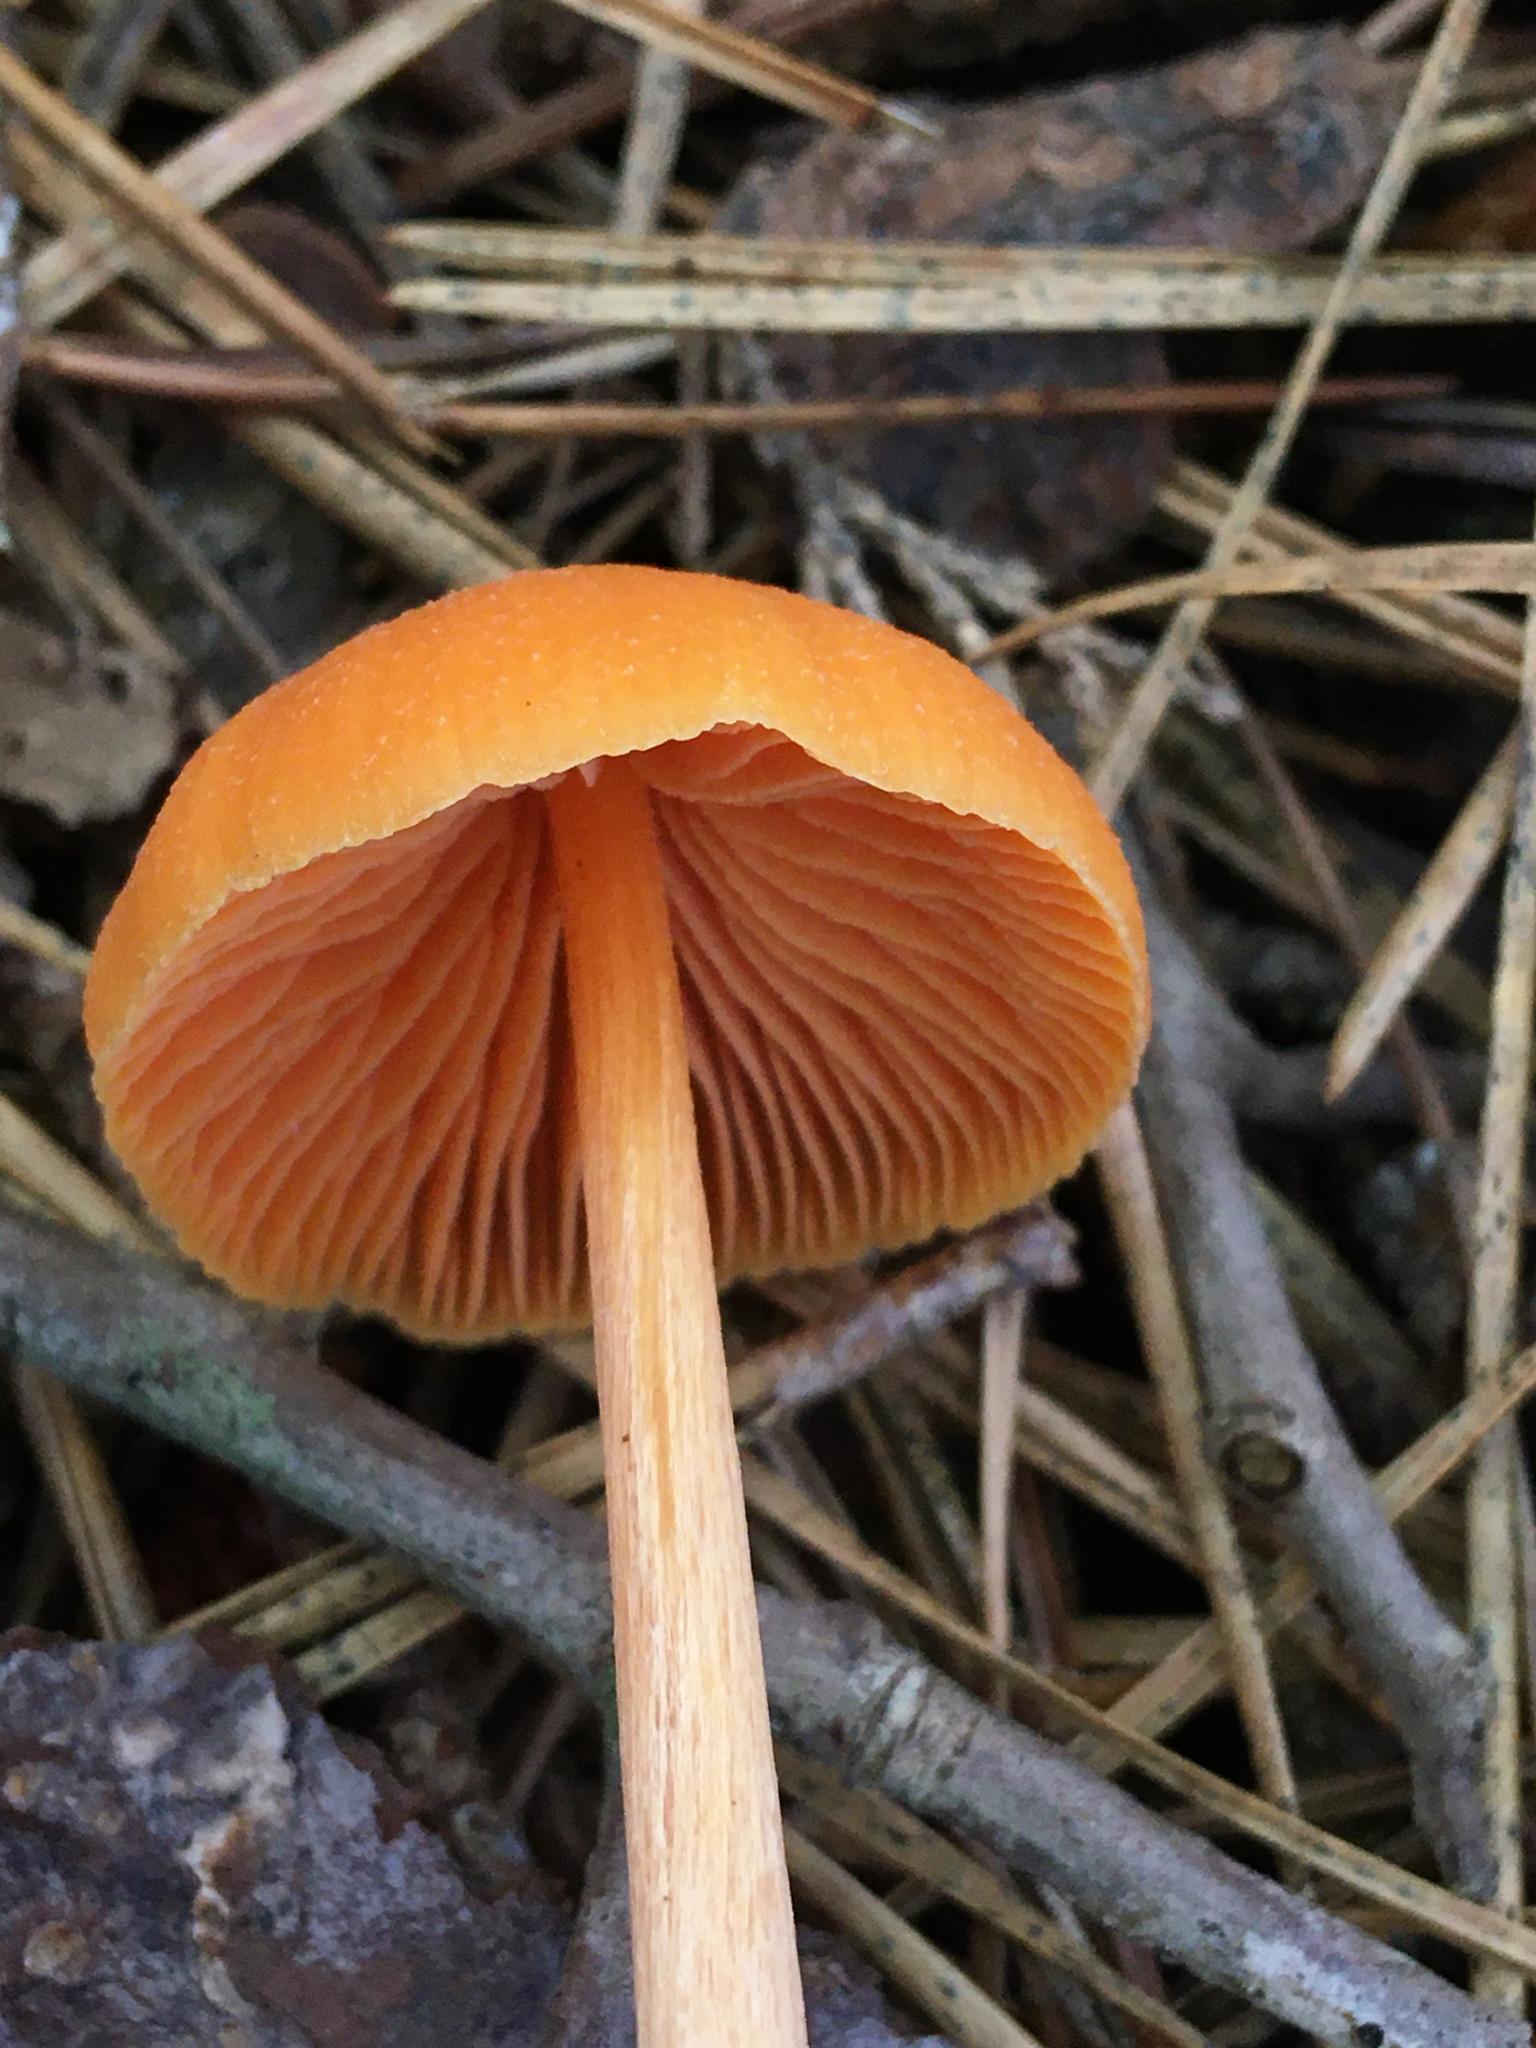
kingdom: Fungi
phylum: Basidiomycota
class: Agaricomycetes
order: Agaricales
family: Entolomataceae
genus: Entoloma
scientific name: Entoloma quadratum
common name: Salmon pinkgill
